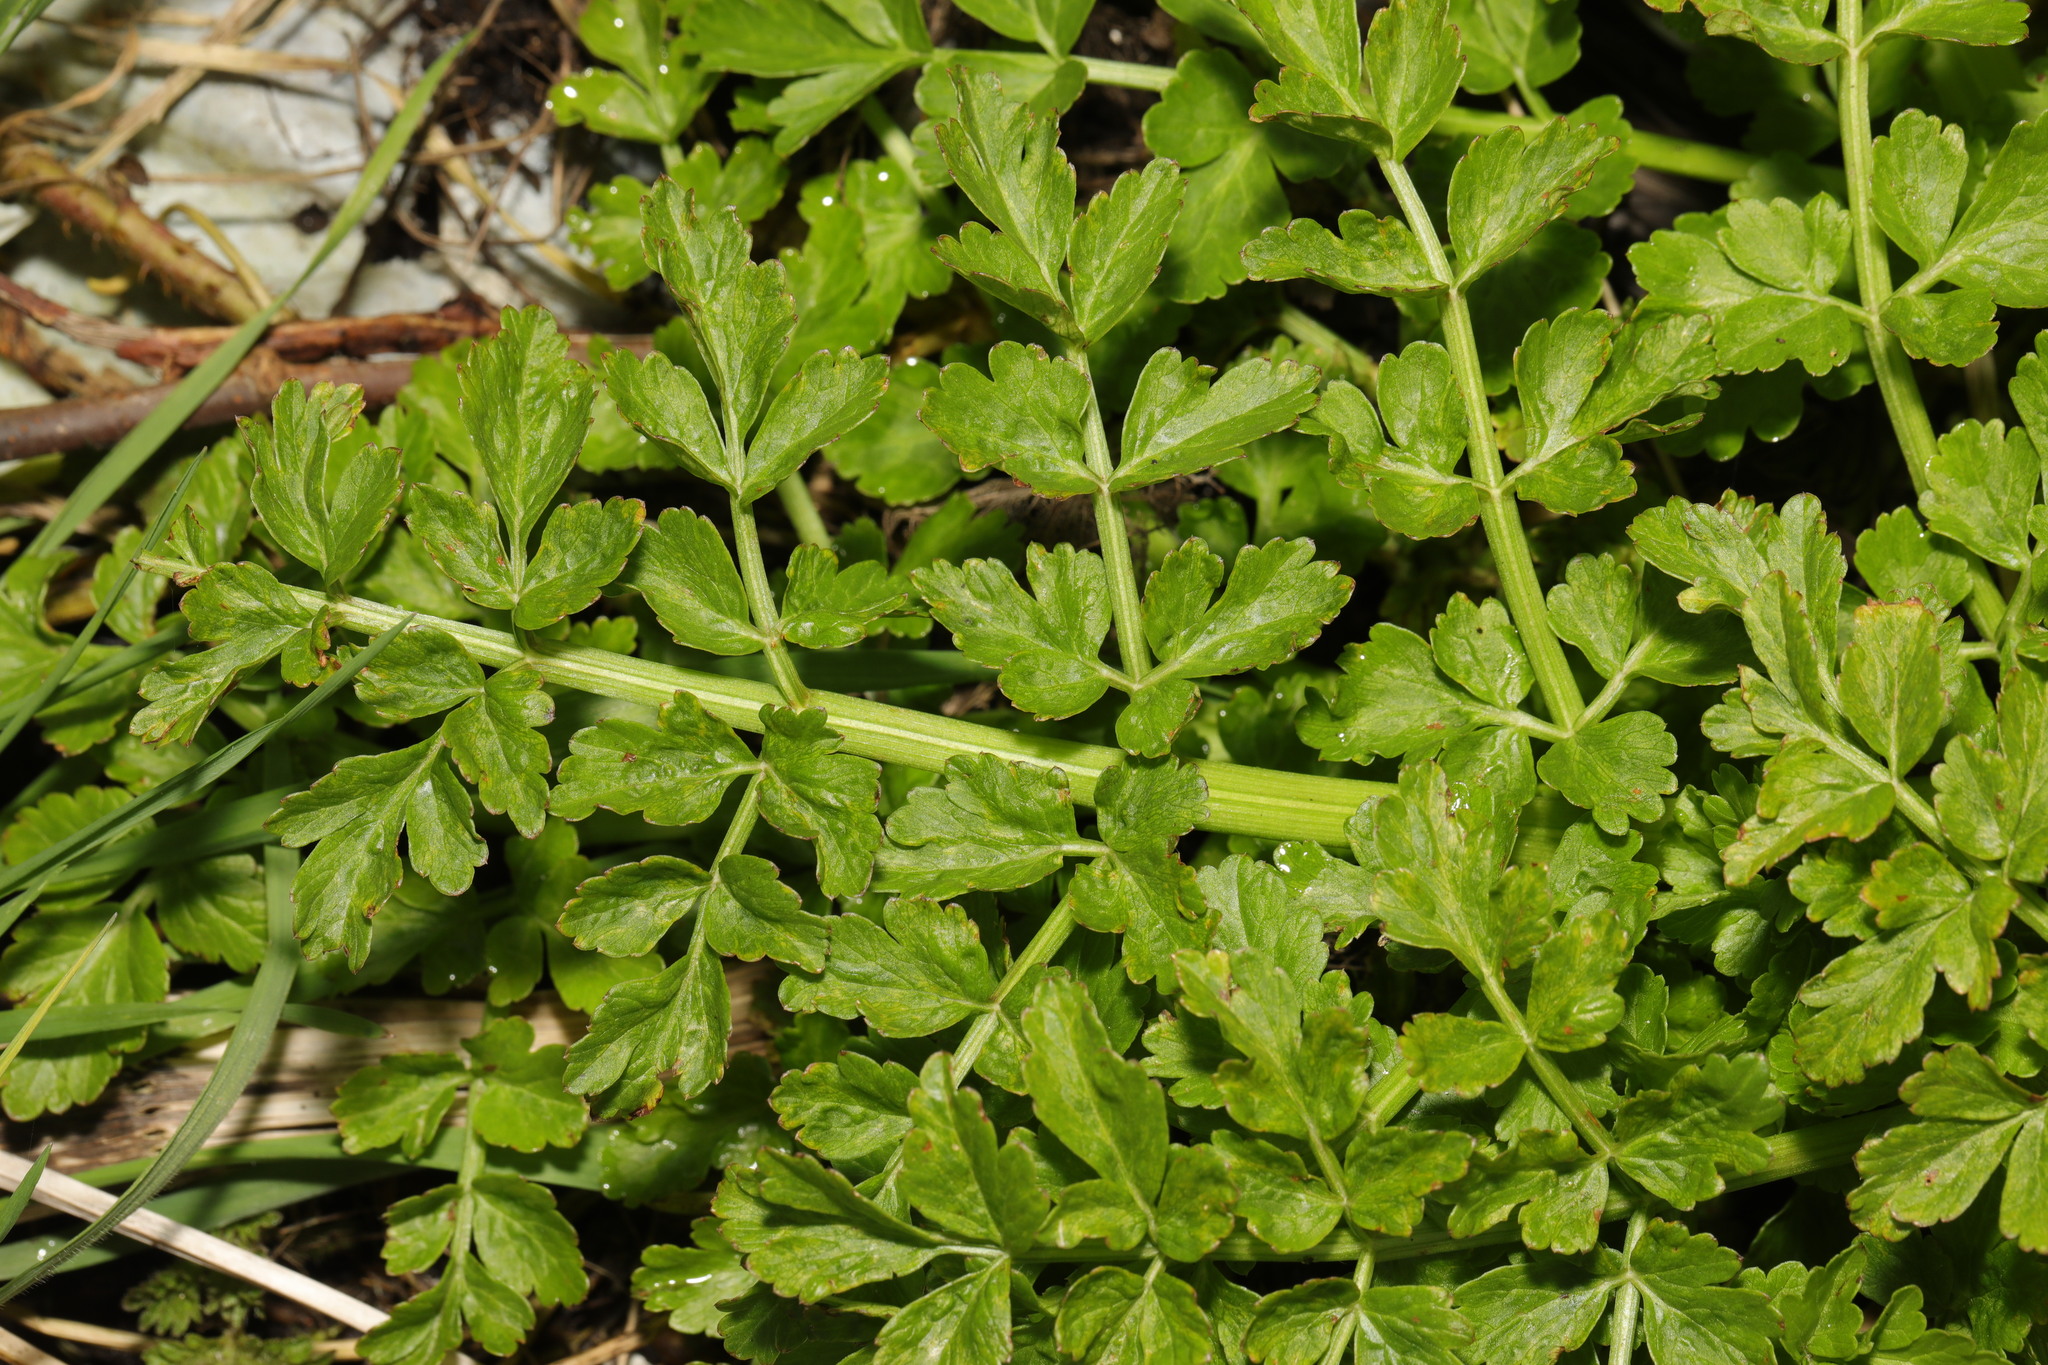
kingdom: Plantae
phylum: Tracheophyta
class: Magnoliopsida
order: Apiales
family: Apiaceae
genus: Oenanthe
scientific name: Oenanthe crocata
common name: Hemlock water-dropwort
